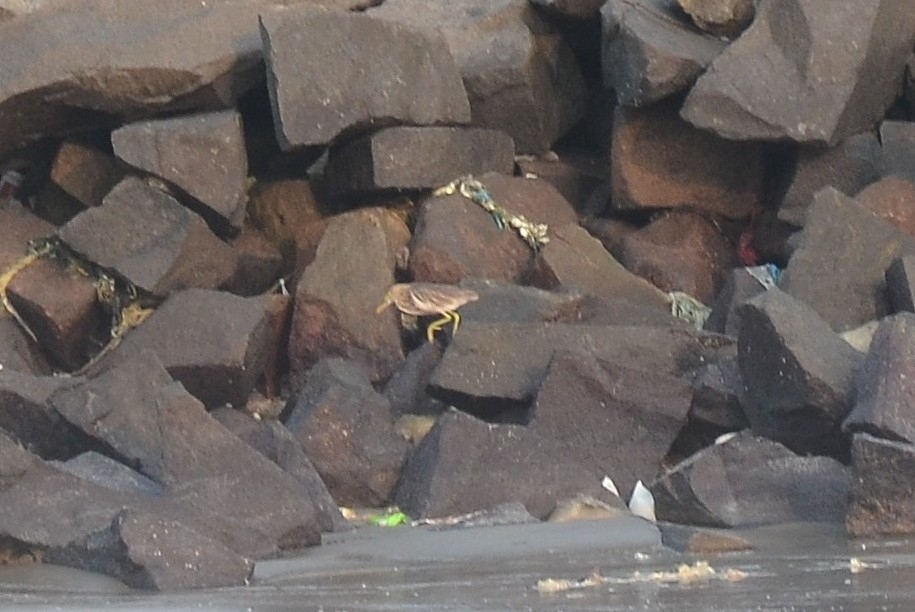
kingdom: Animalia
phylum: Chordata
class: Aves
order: Pelecaniformes
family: Ardeidae
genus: Ardeola
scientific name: Ardeola grayii
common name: Indian pond heron
